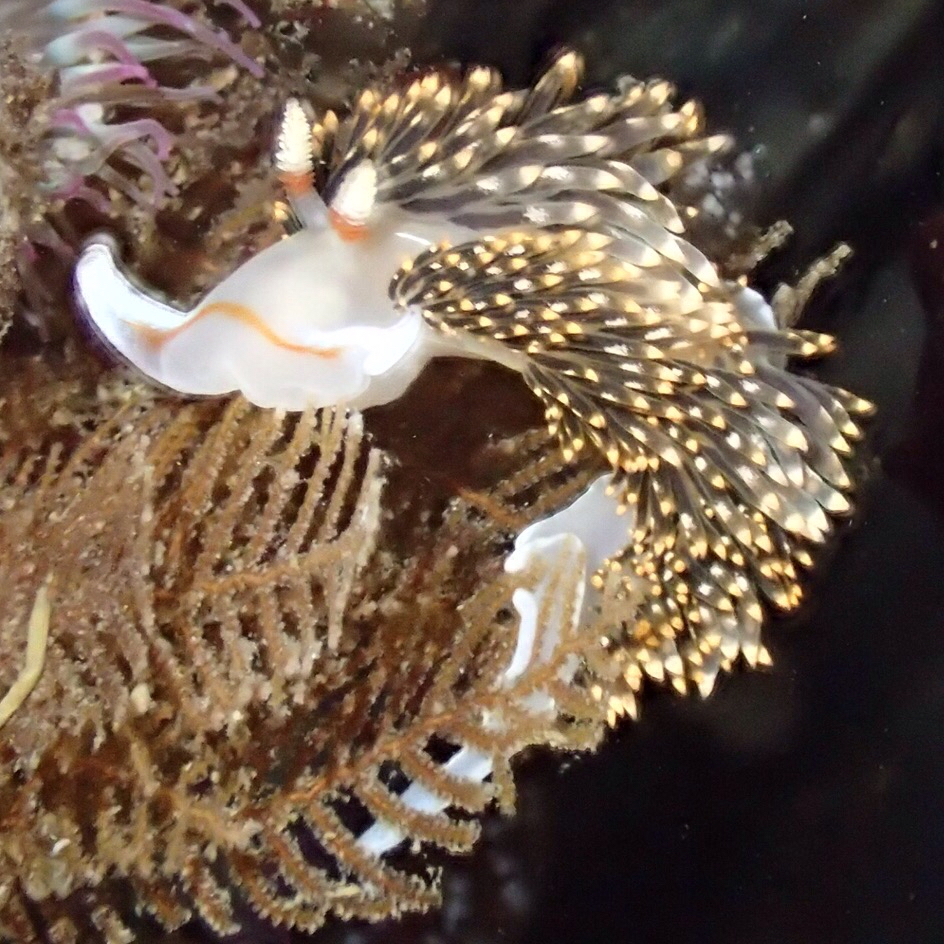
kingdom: Animalia
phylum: Mollusca
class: Gastropoda
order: Nudibranchia
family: Facelinidae
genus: Phidiana
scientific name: Phidiana hiltoni
